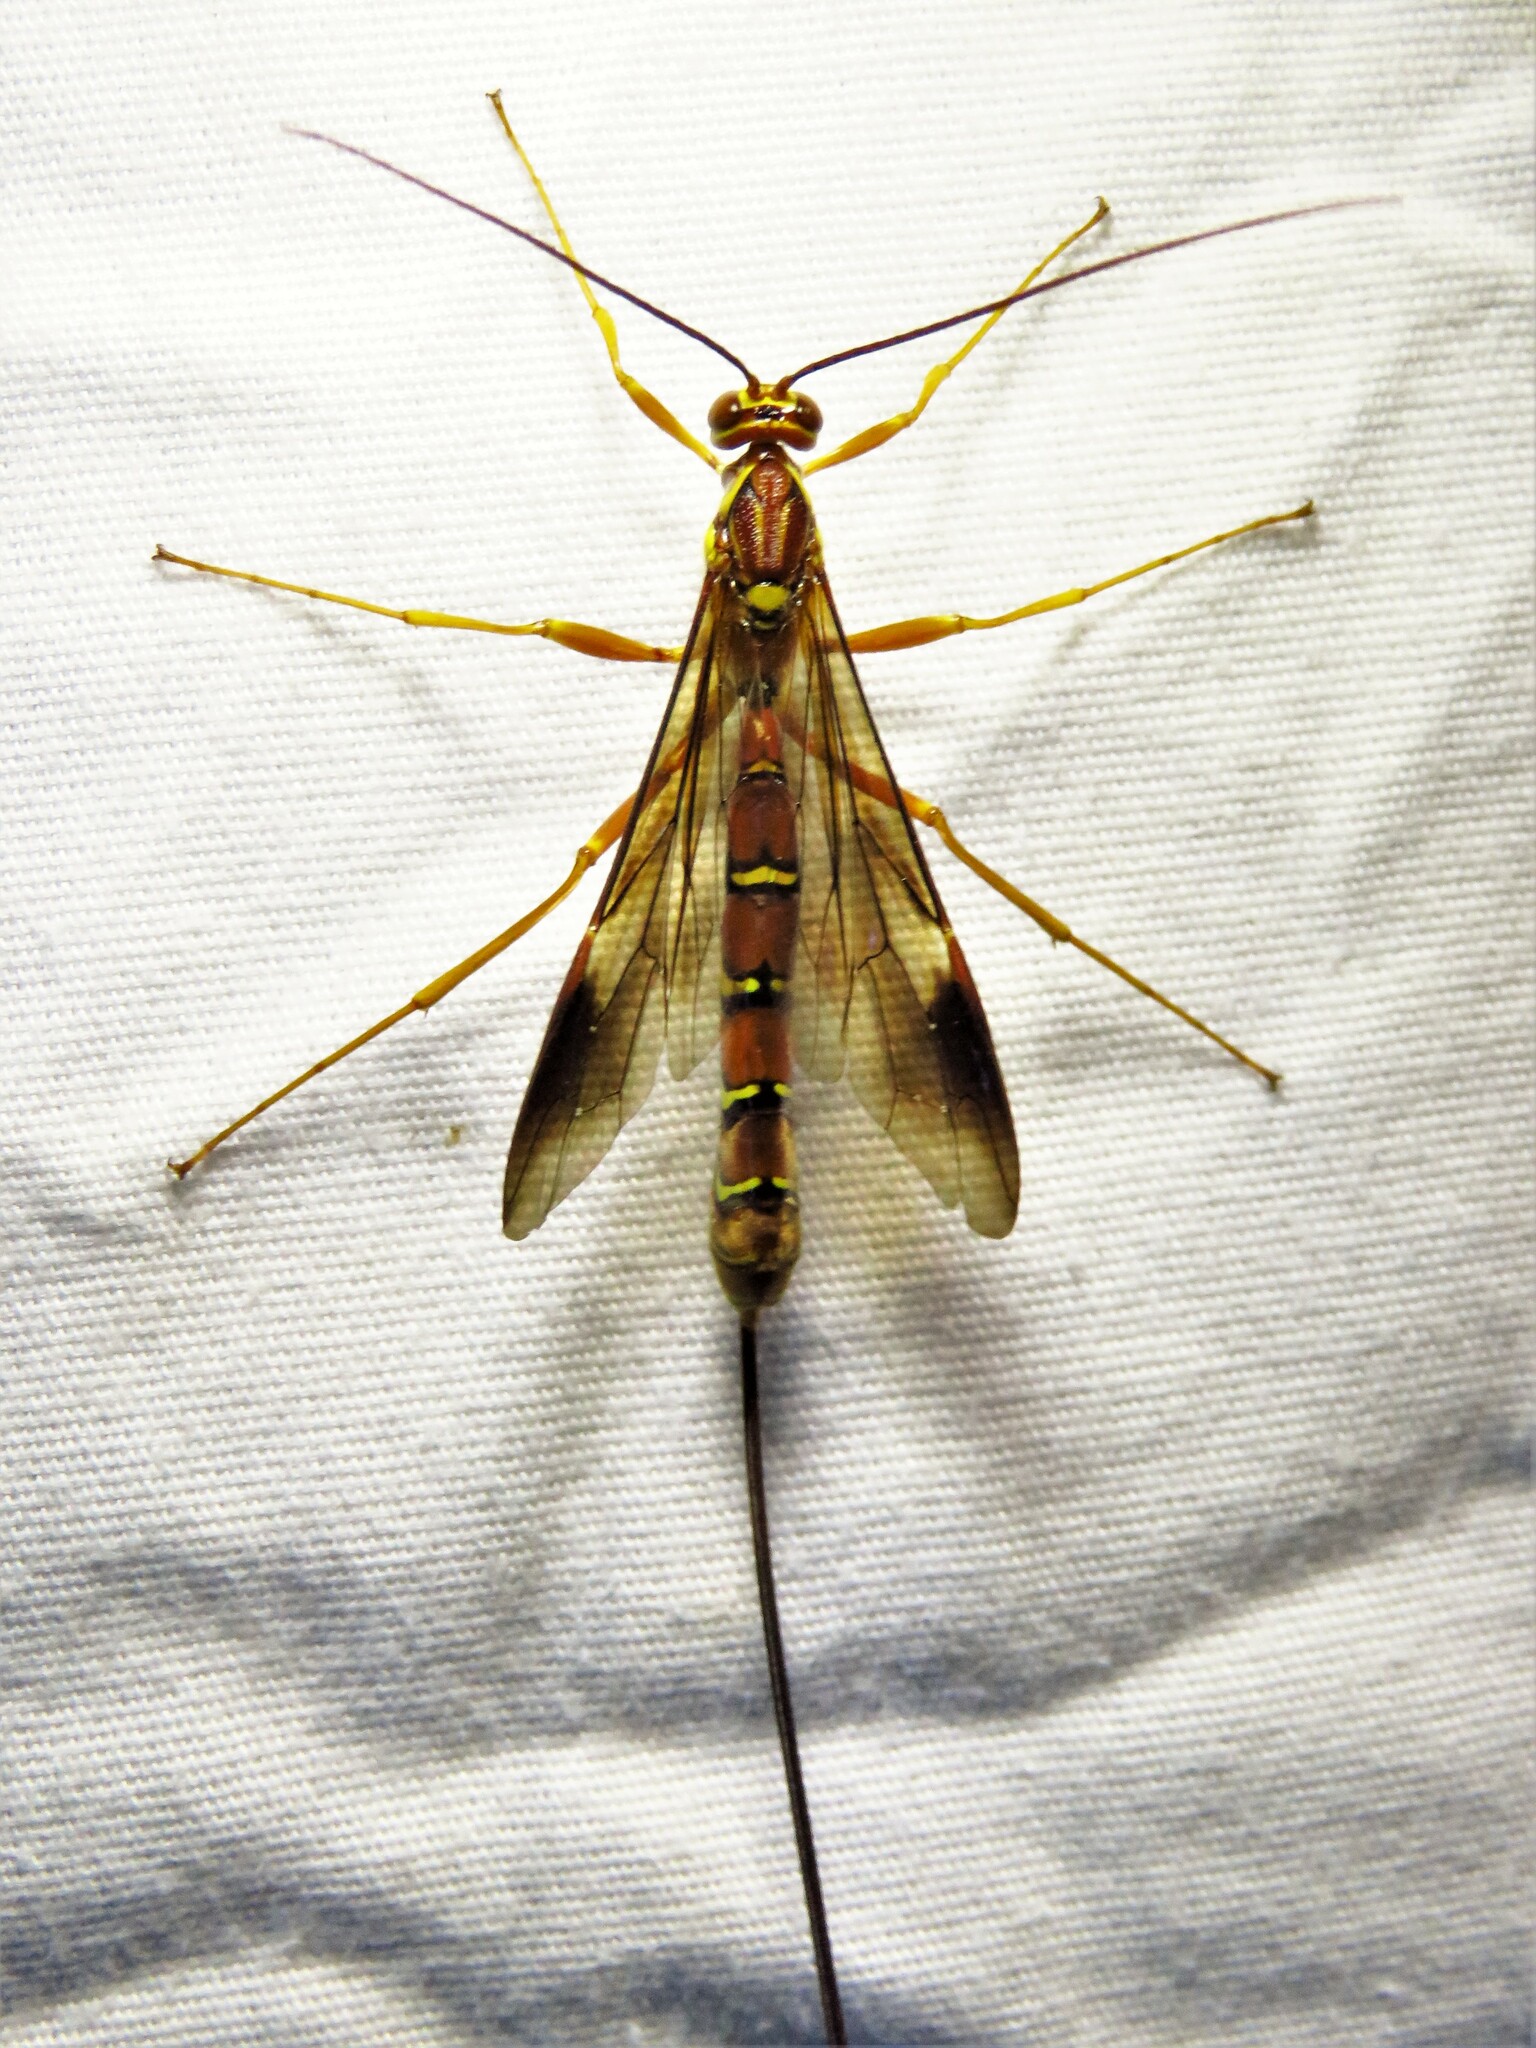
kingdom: Animalia
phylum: Arthropoda
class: Insecta
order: Hymenoptera
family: Ichneumonidae
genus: Megarhyssa
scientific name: Megarhyssa greenei
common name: Greene's giant ichneumonid wasp
